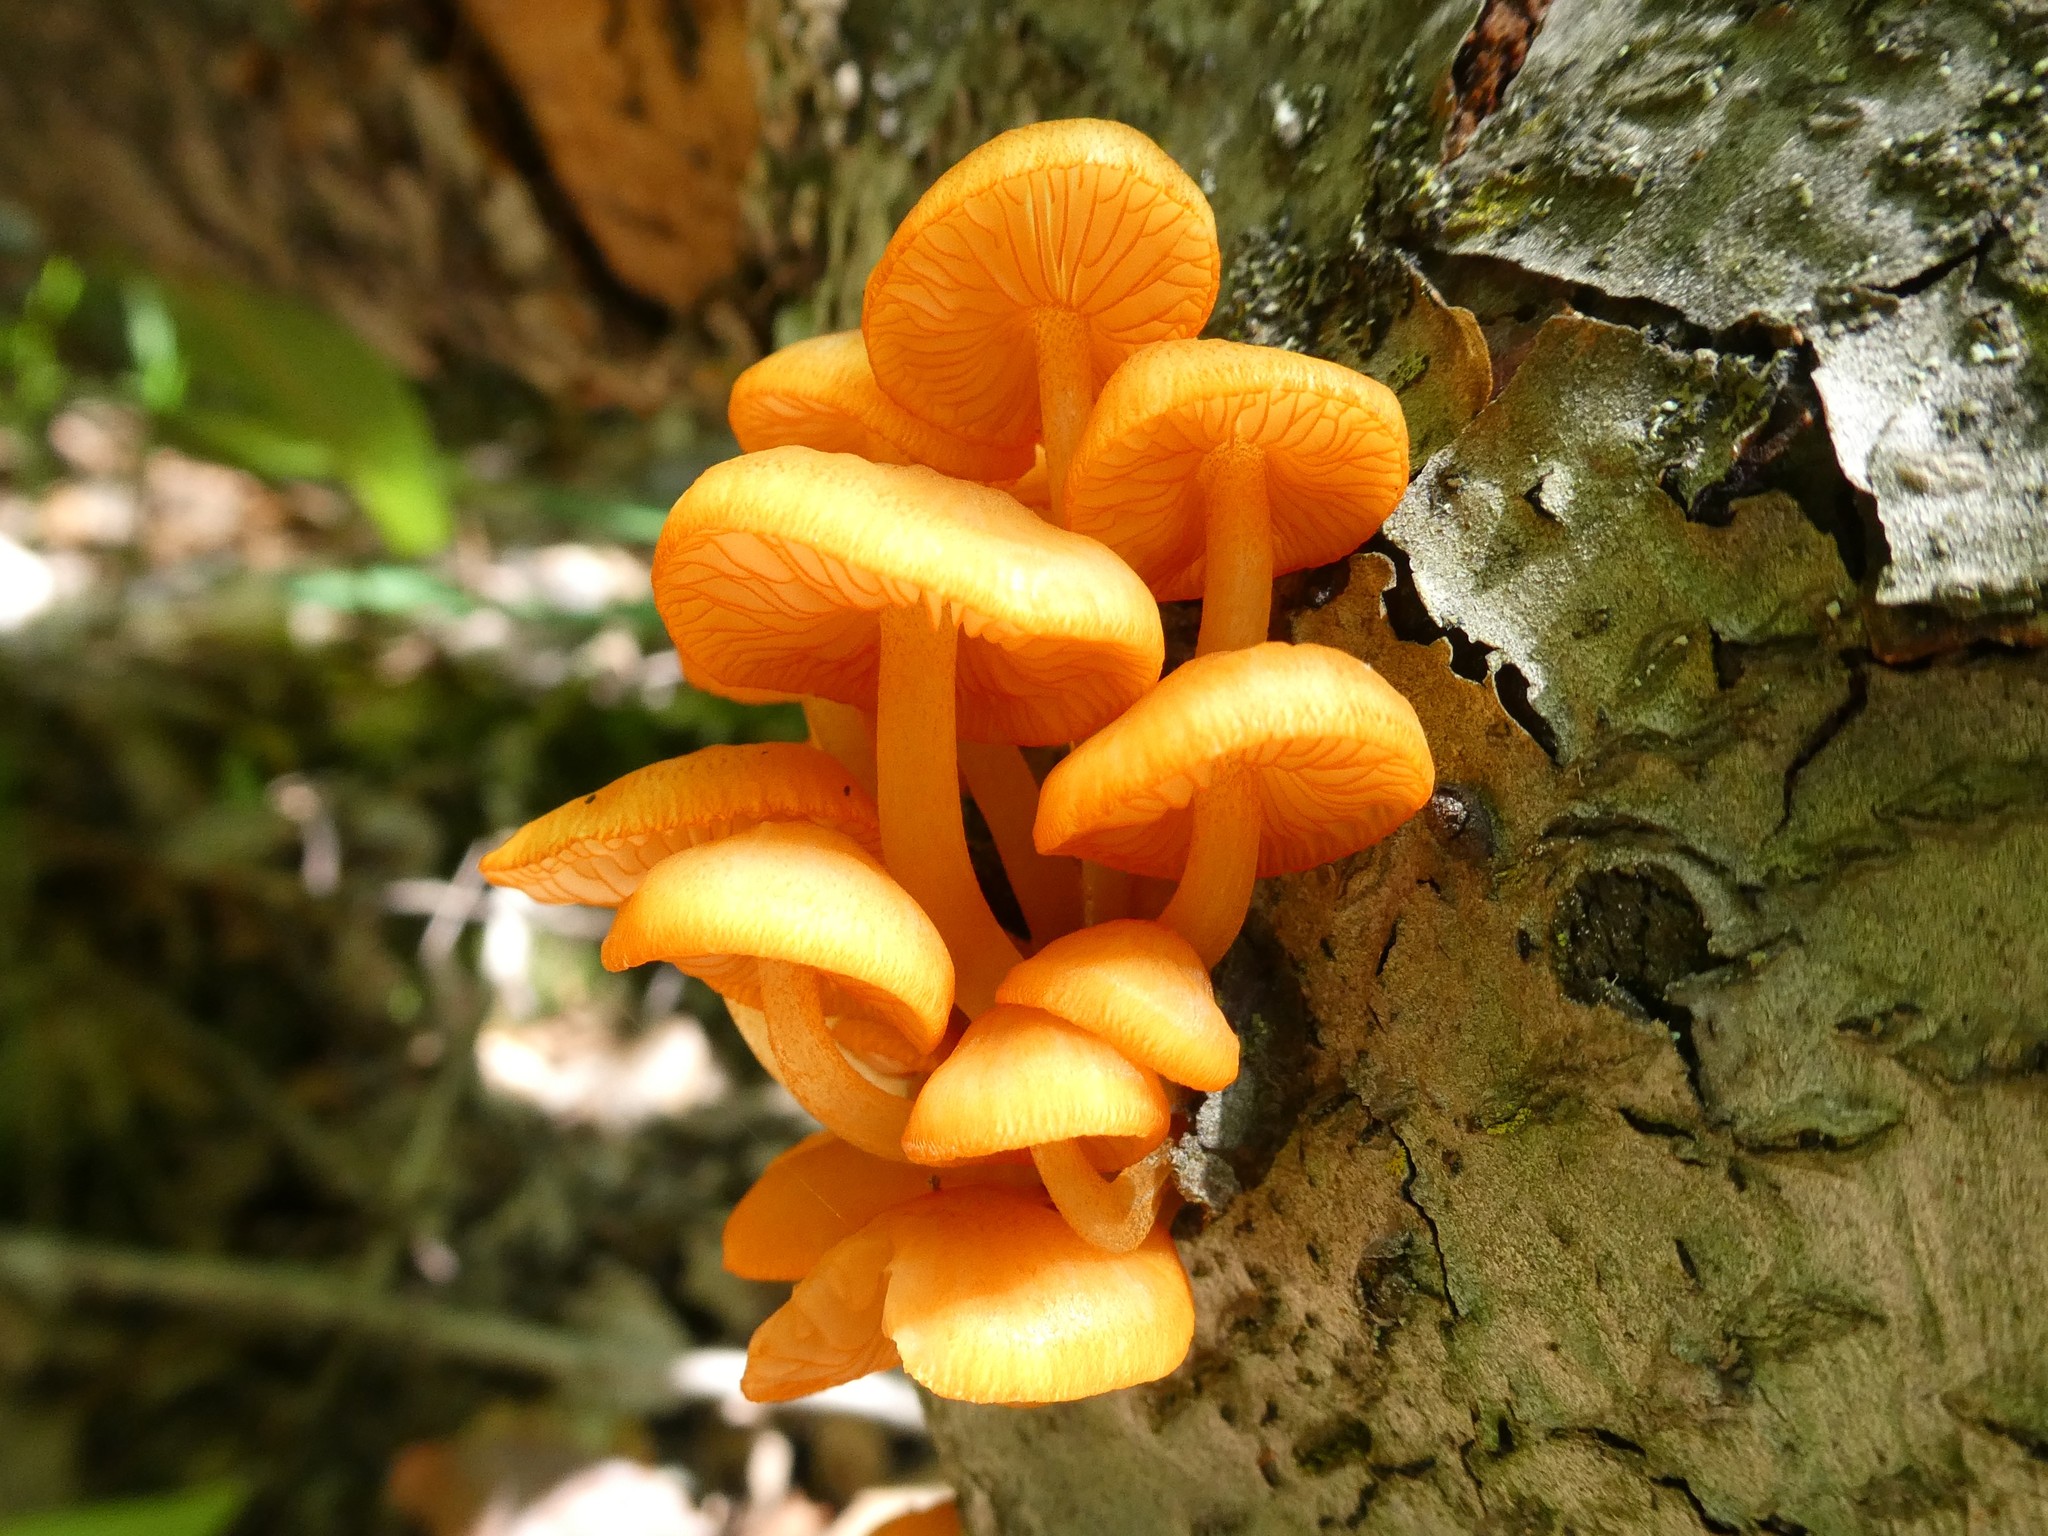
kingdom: Fungi
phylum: Basidiomycota
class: Agaricomycetes
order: Agaricales
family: Mycenaceae
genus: Mycena
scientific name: Mycena leaiana
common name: Orange mycena
